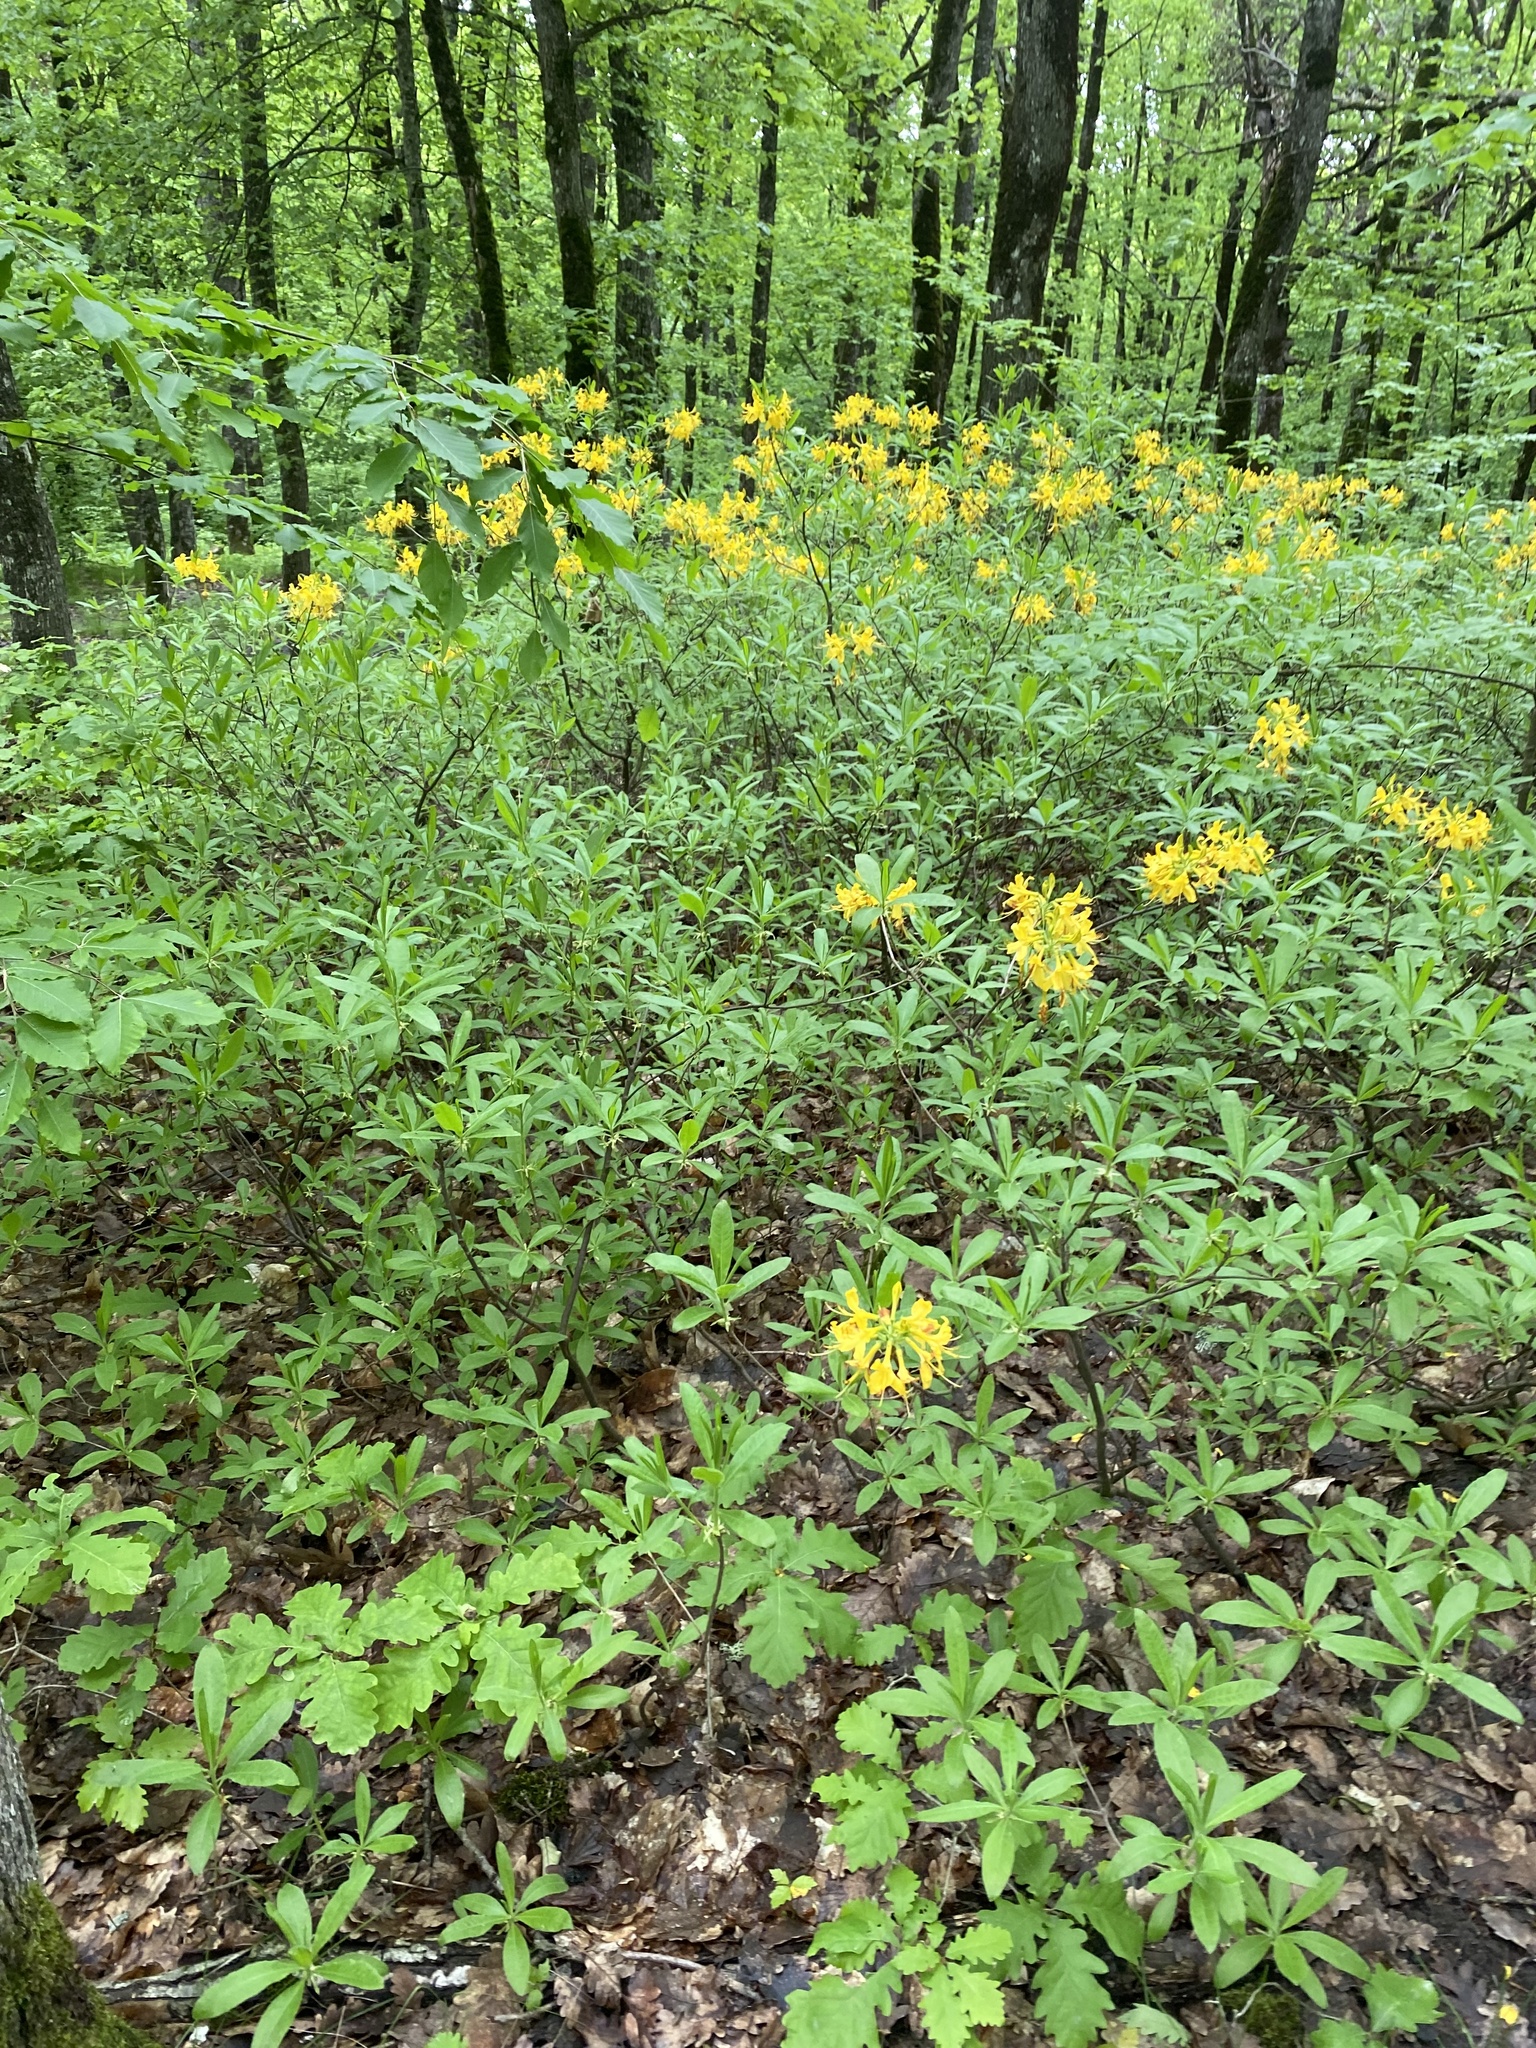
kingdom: Plantae
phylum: Tracheophyta
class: Magnoliopsida
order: Ericales
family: Ericaceae
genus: Rhododendron
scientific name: Rhododendron luteum
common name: Yellow azalea
